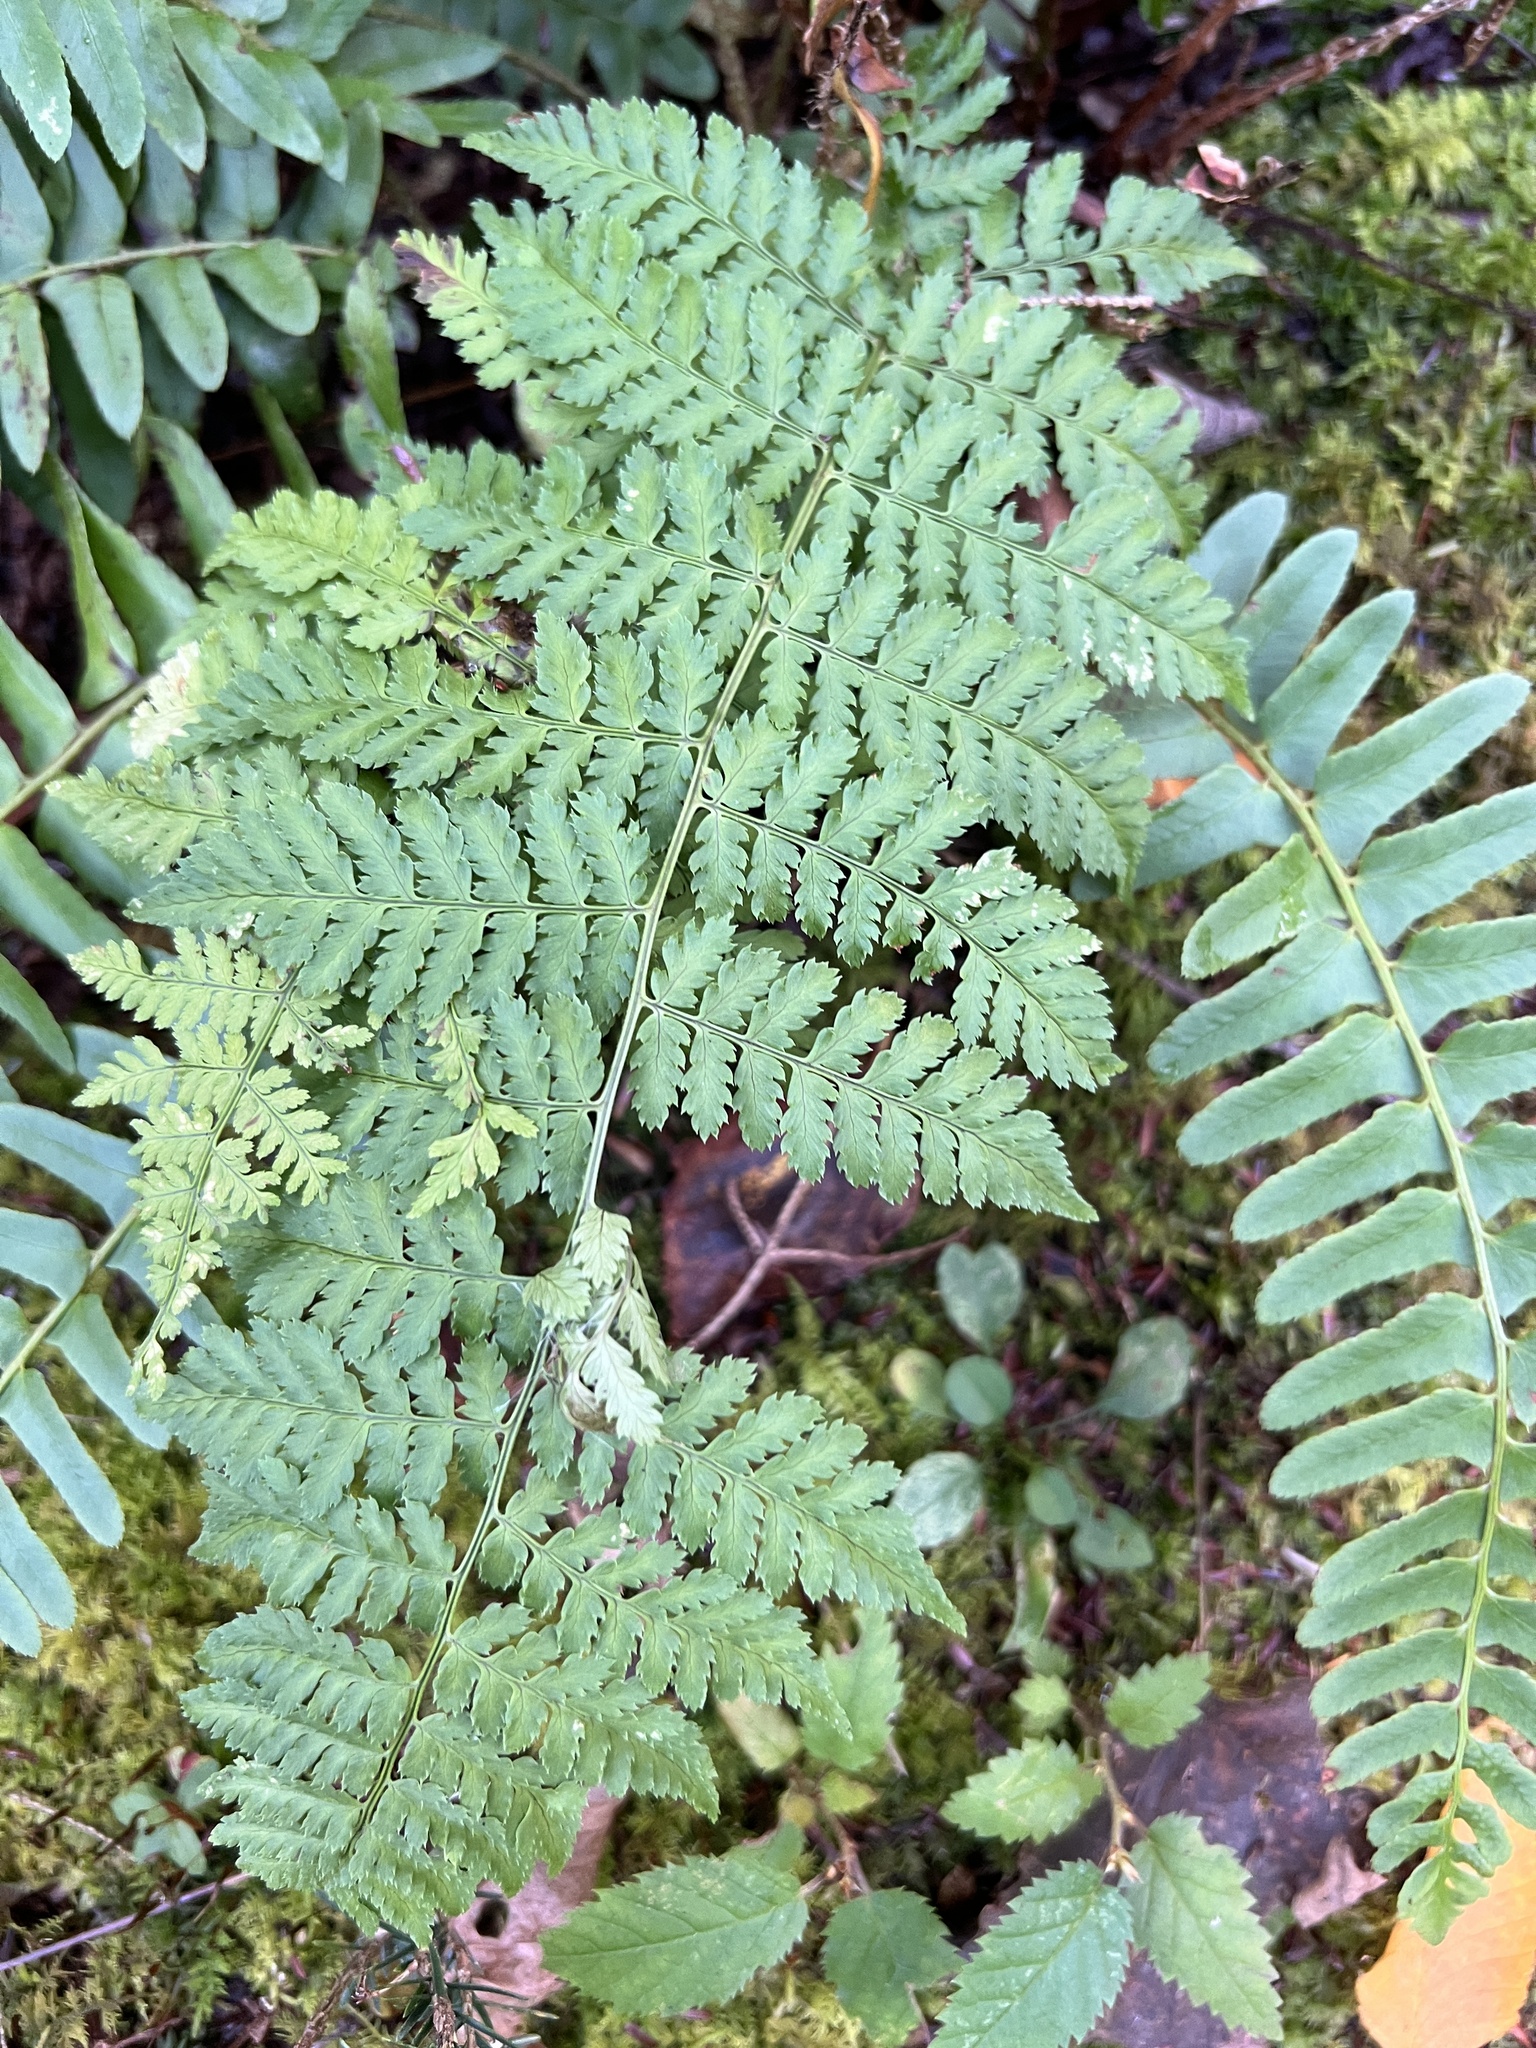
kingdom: Plantae
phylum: Tracheophyta
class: Polypodiopsida
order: Polypodiales
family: Dryopteridaceae
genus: Dryopteris
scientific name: Dryopteris intermedia
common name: Evergreen wood fern
